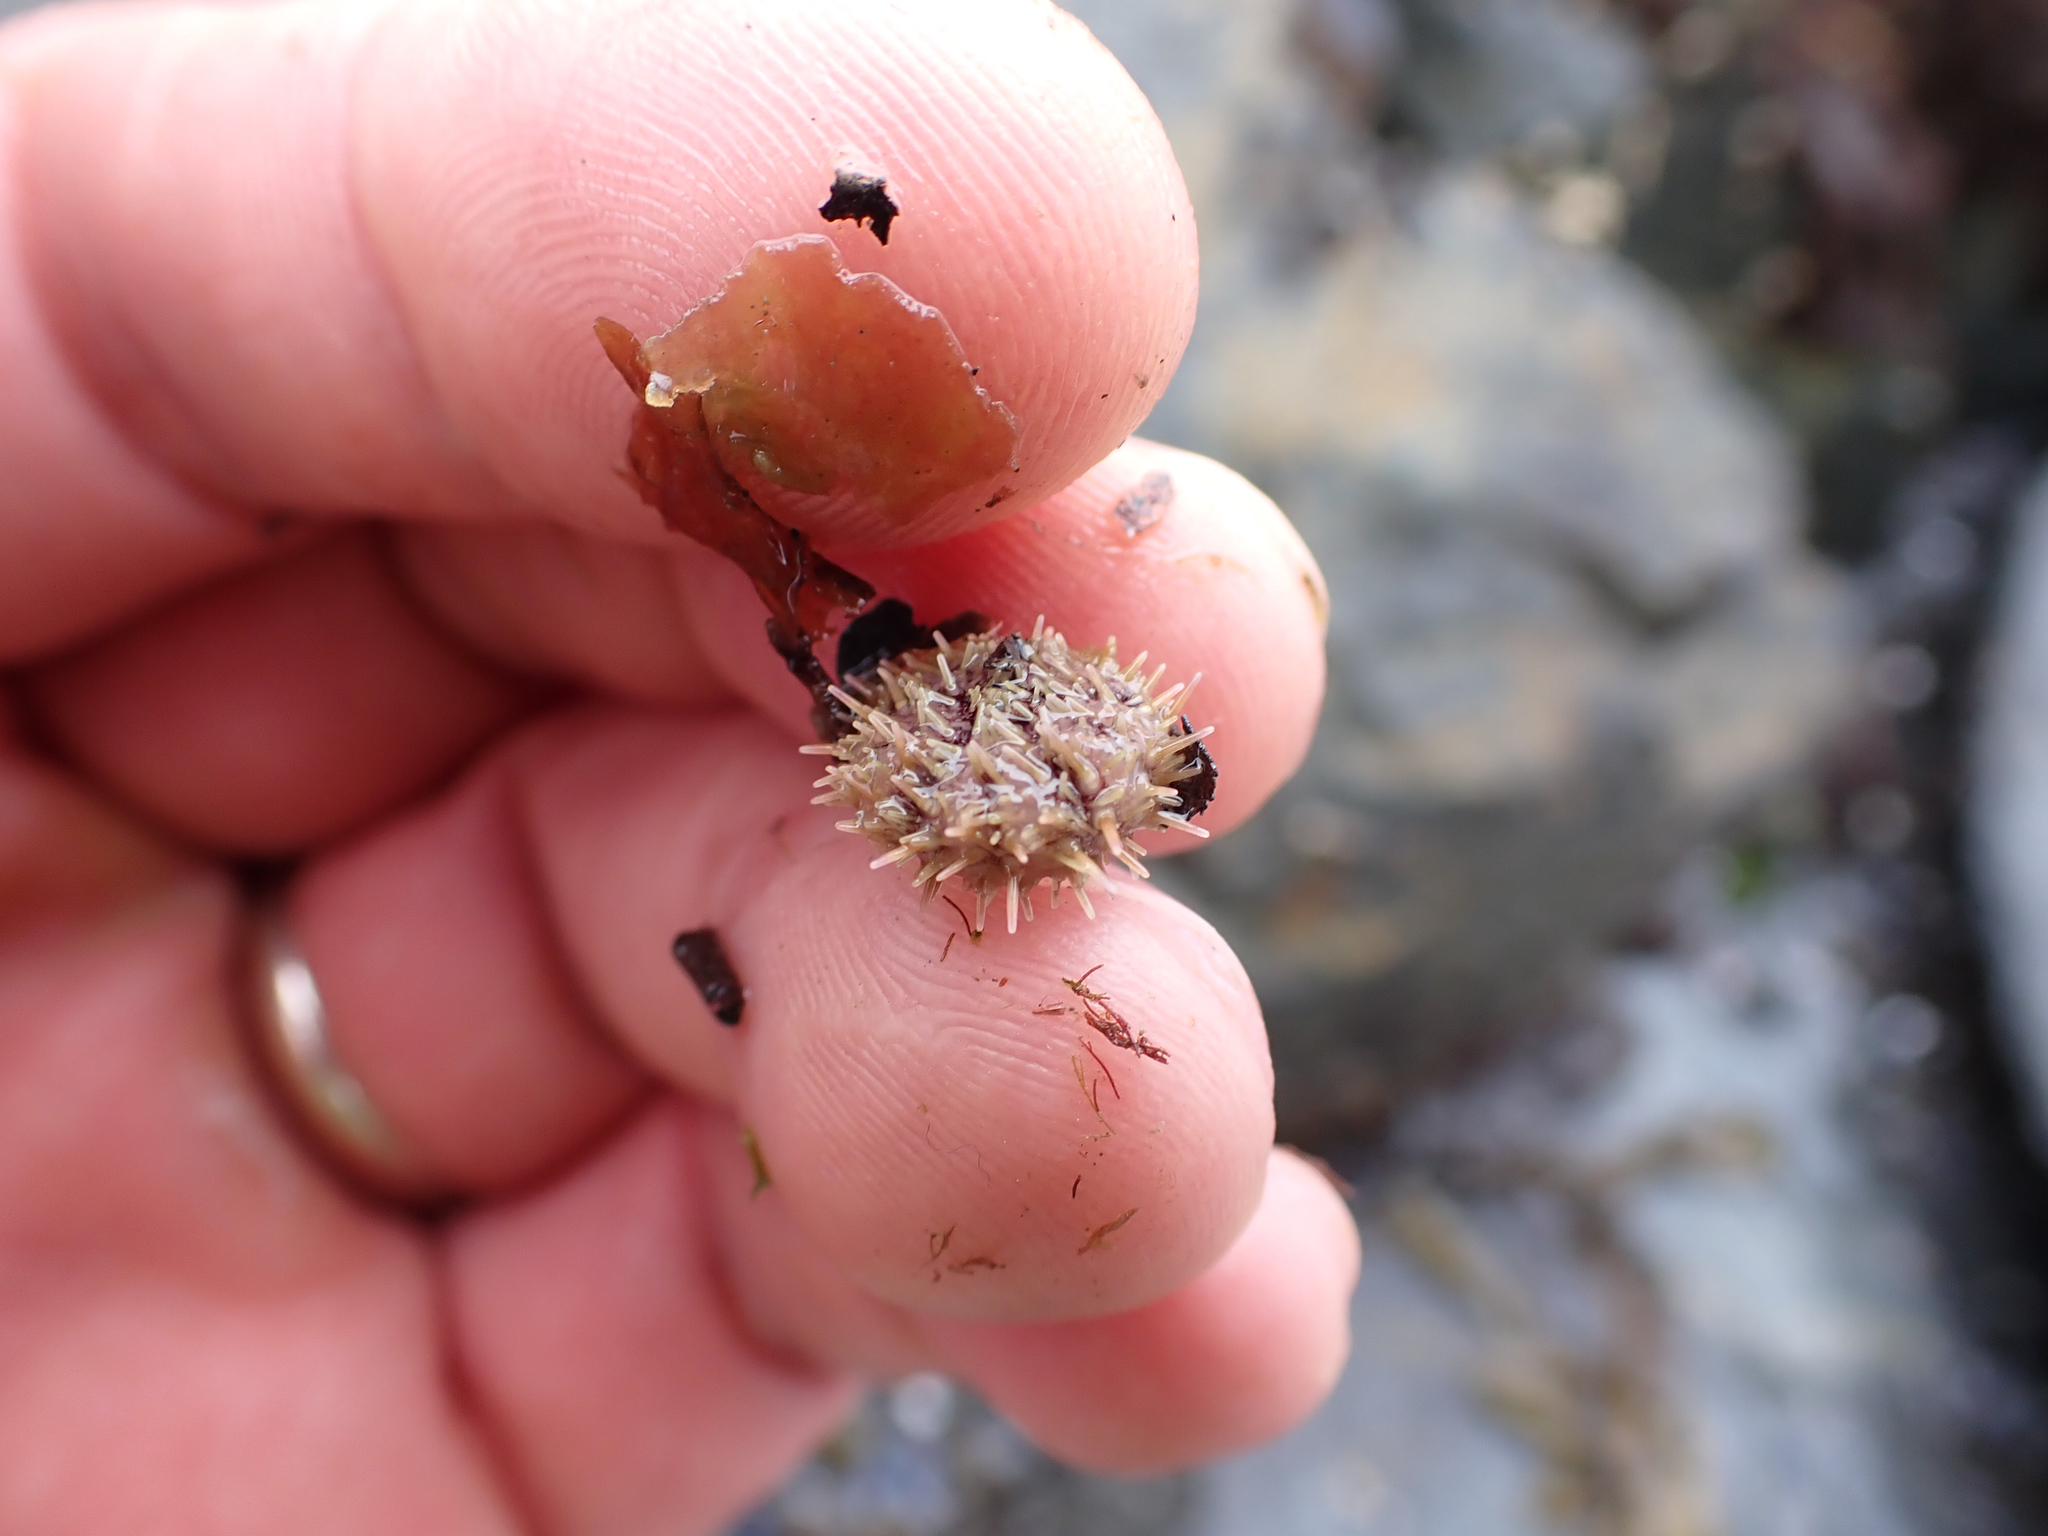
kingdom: Animalia
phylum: Echinodermata
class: Echinoidea
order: Camarodonta
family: Strongylocentrotidae
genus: Strongylocentrotus
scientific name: Strongylocentrotus droebachiensis
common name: Northern sea urchin
